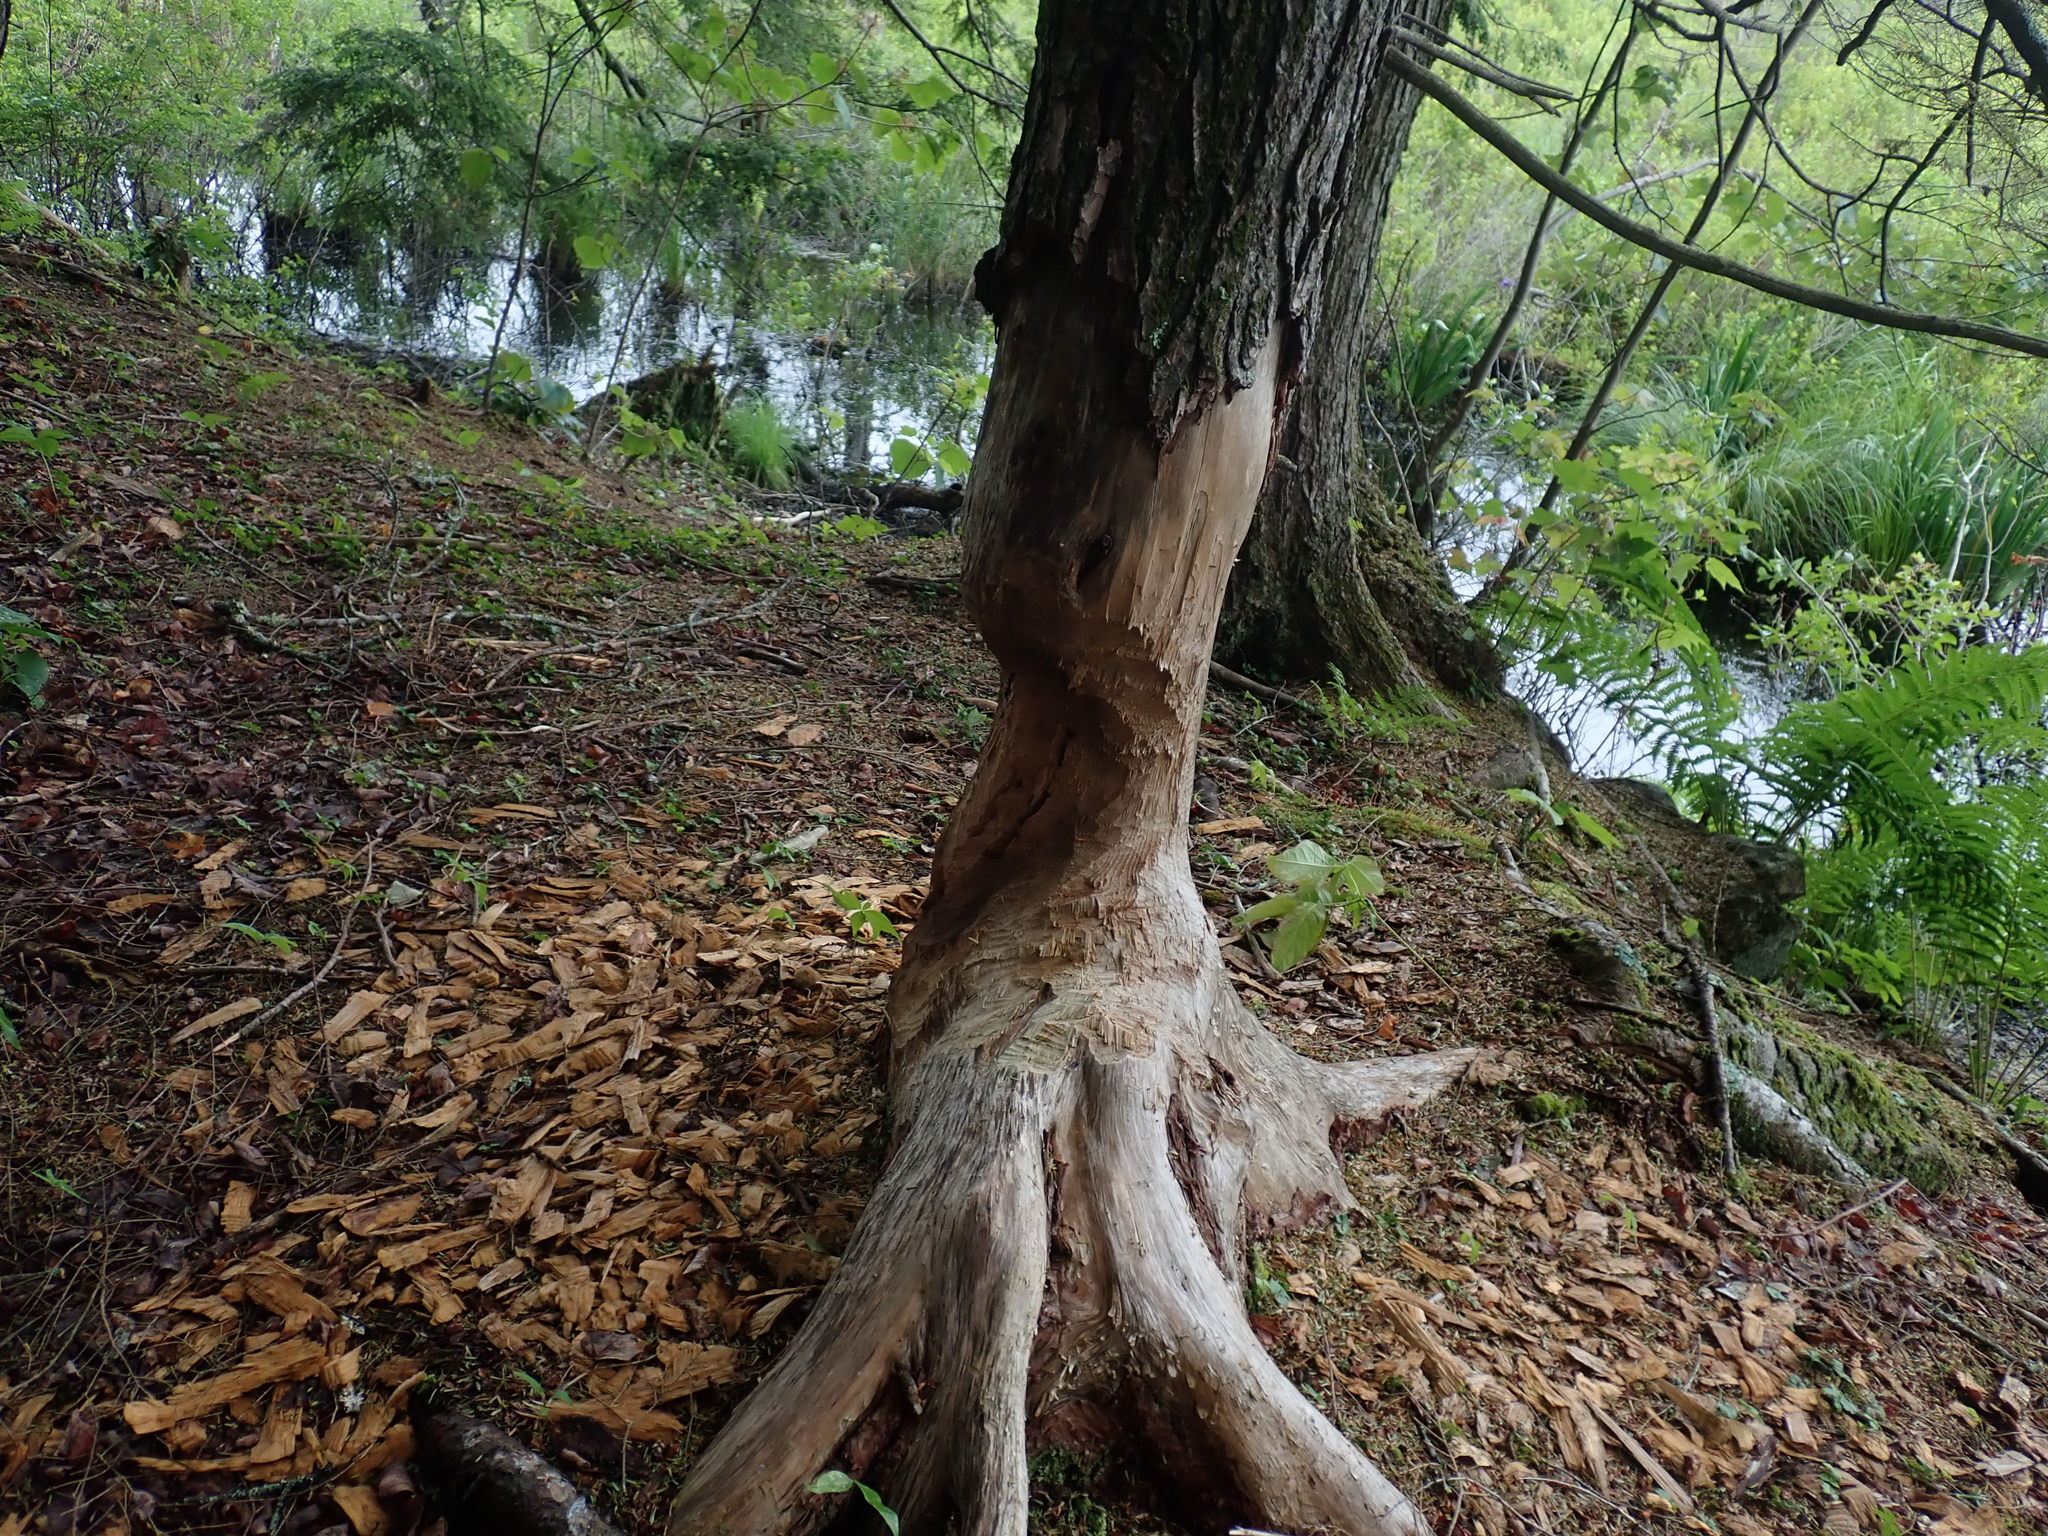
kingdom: Animalia
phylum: Chordata
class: Mammalia
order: Rodentia
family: Castoridae
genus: Castor
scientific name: Castor canadensis
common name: American beaver
